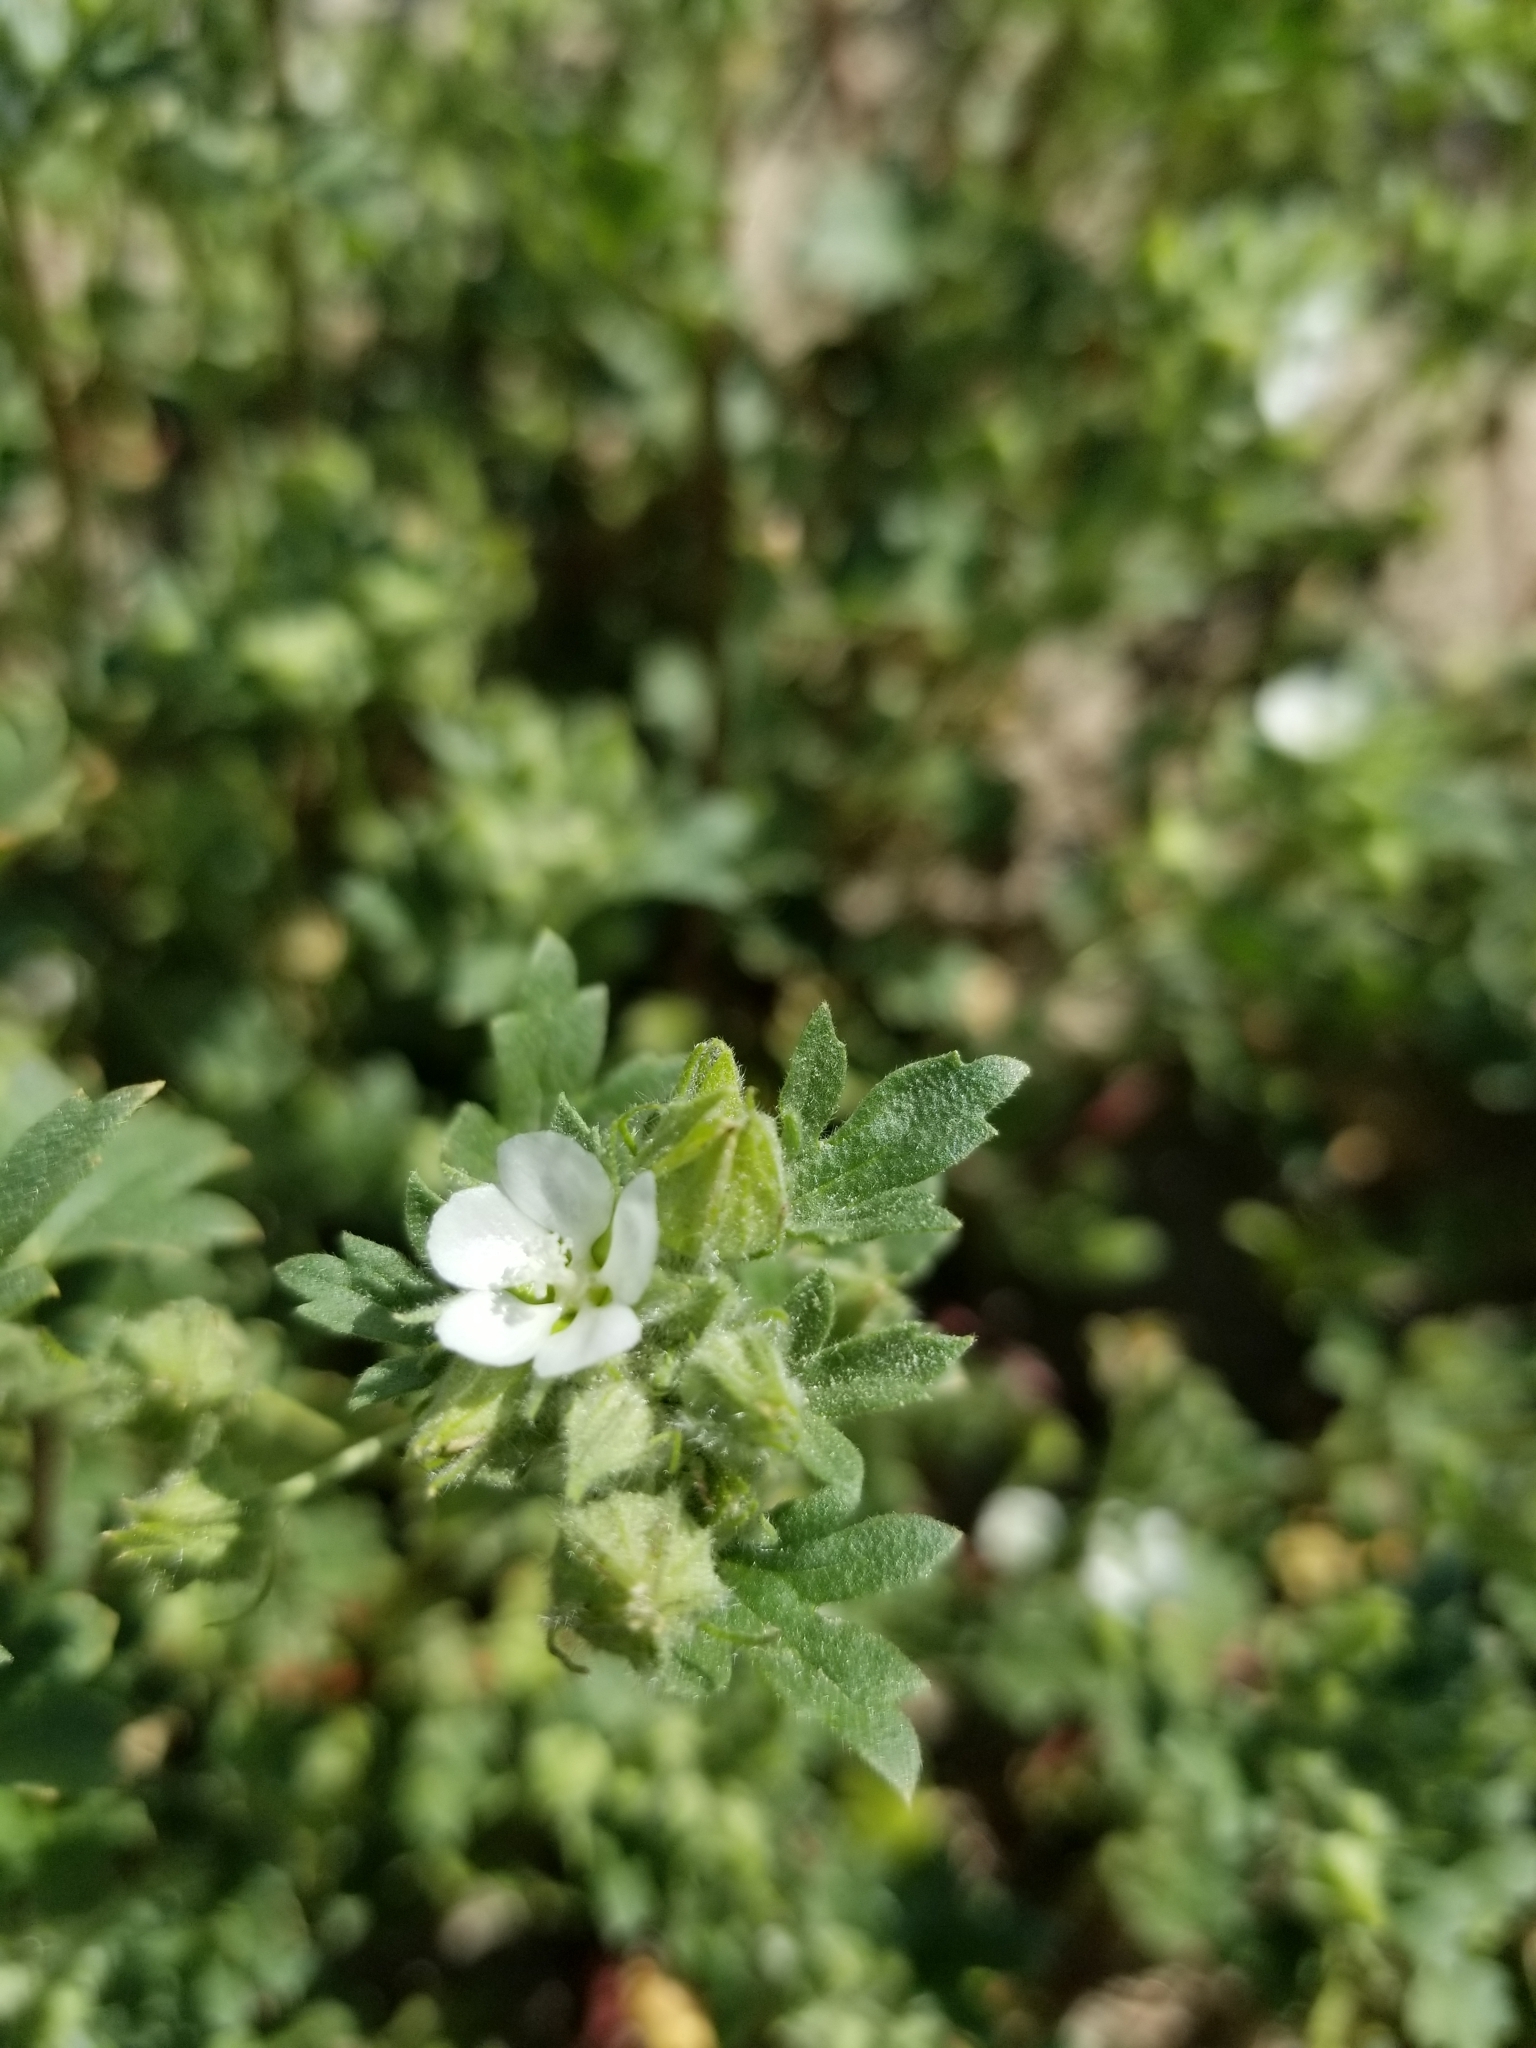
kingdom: Plantae
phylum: Tracheophyta
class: Magnoliopsida
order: Malvales
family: Malvaceae
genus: Eremalche
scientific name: Eremalche exilis
